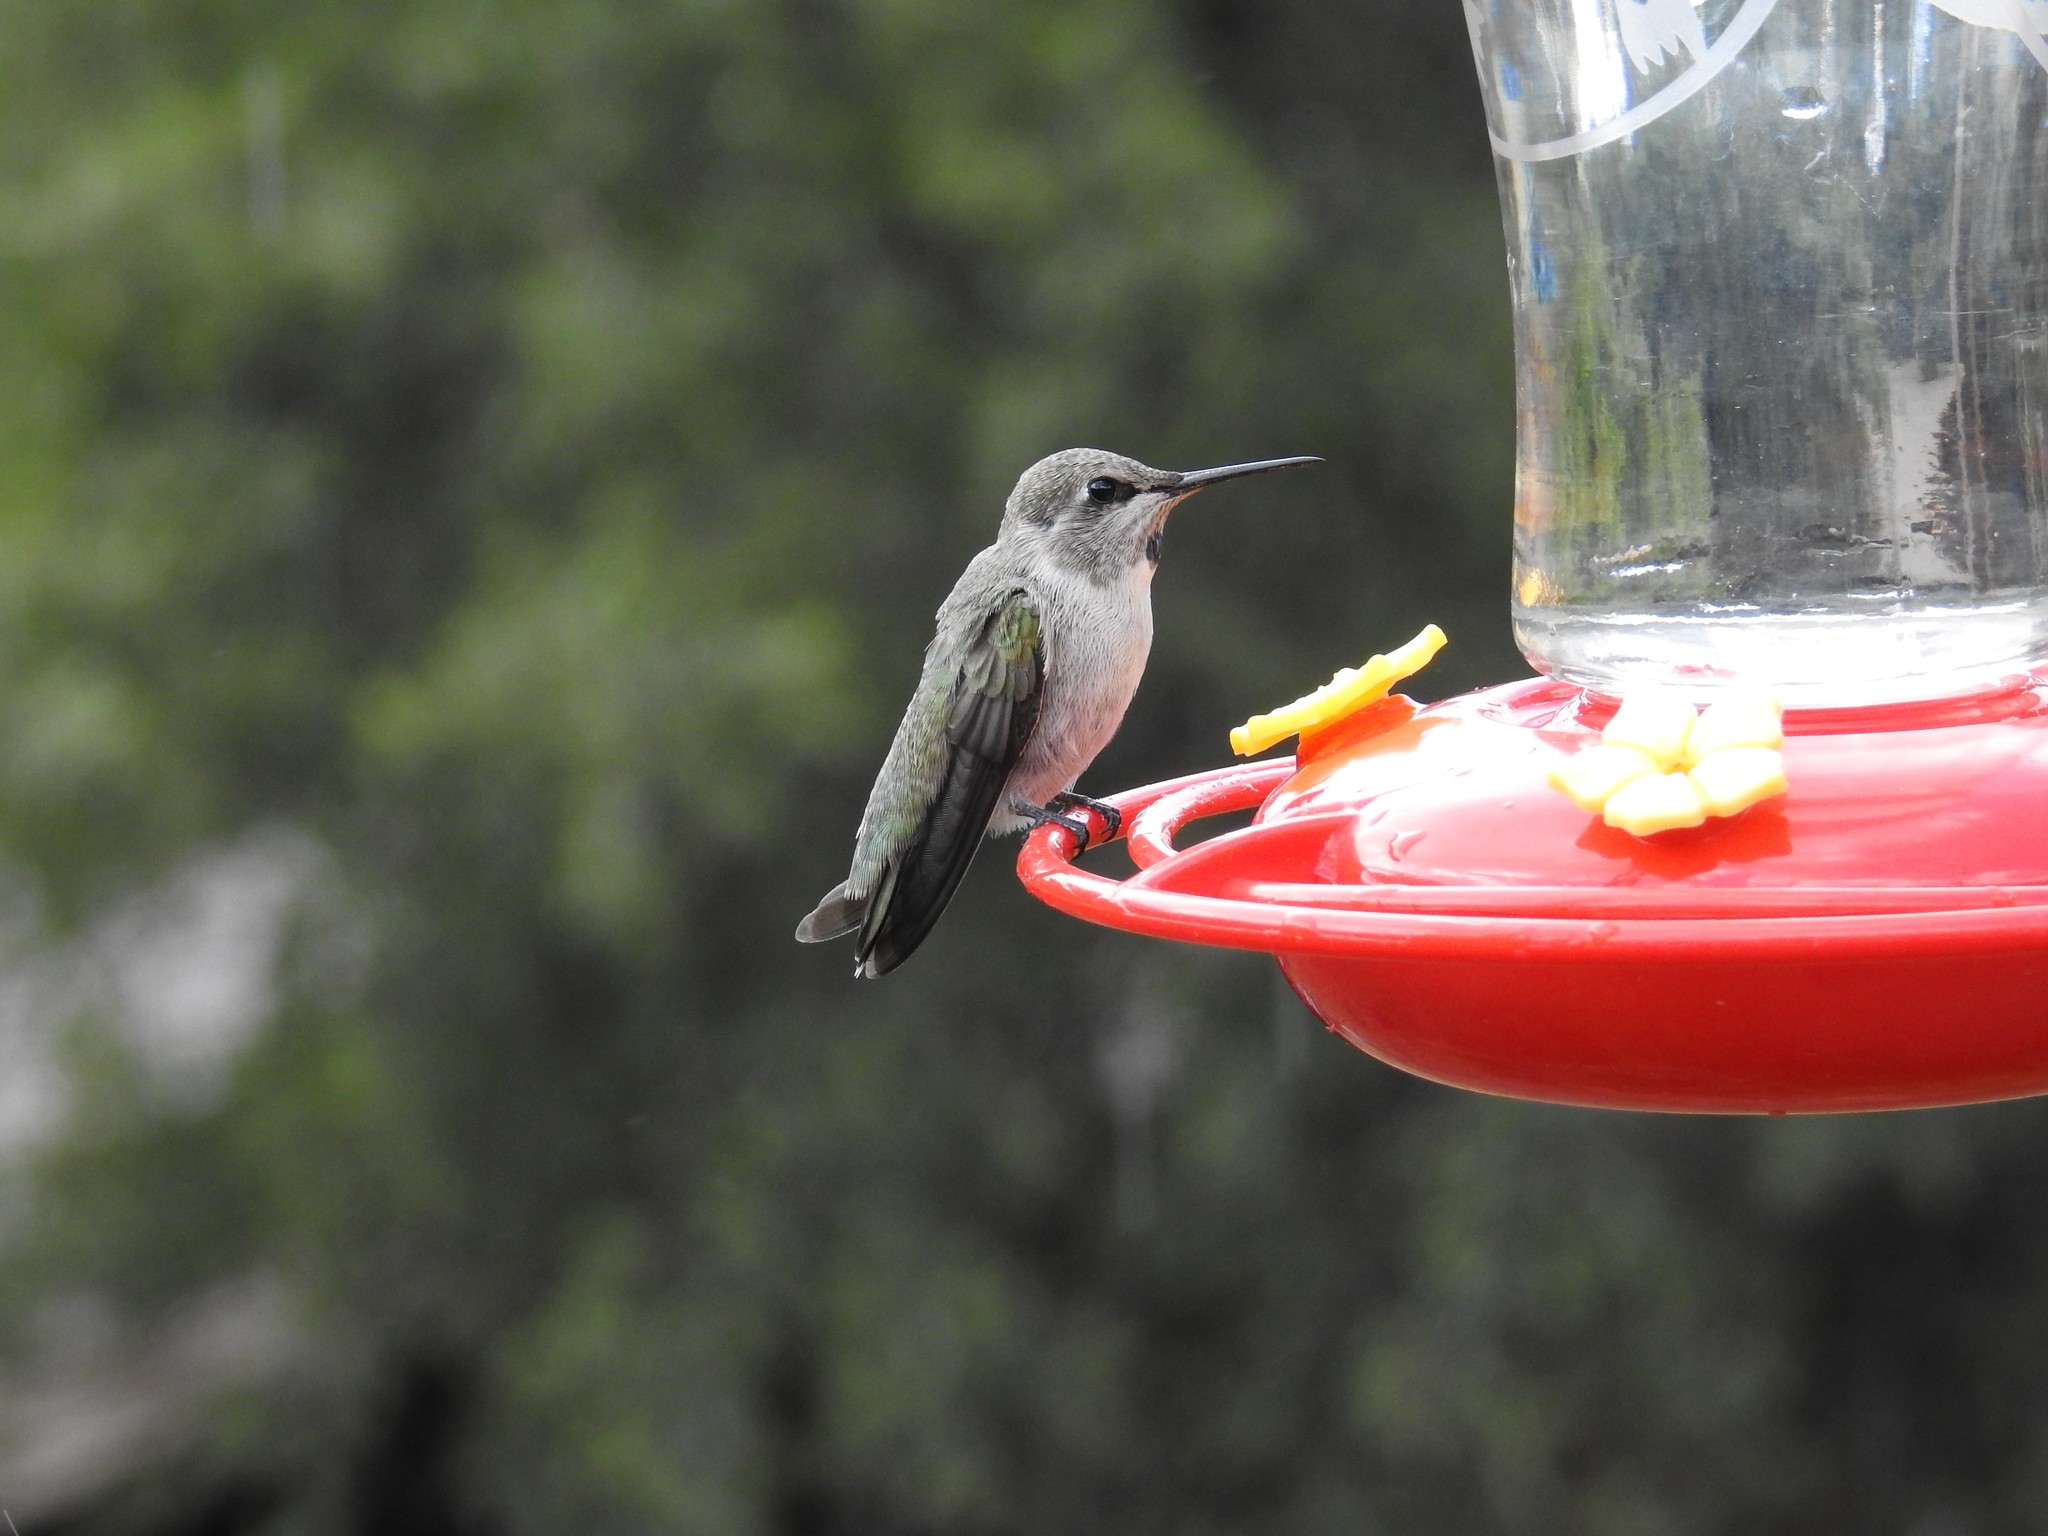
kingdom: Animalia
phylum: Chordata
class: Aves
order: Apodiformes
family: Trochilidae
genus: Calypte
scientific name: Calypte anna
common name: Anna's hummingbird
